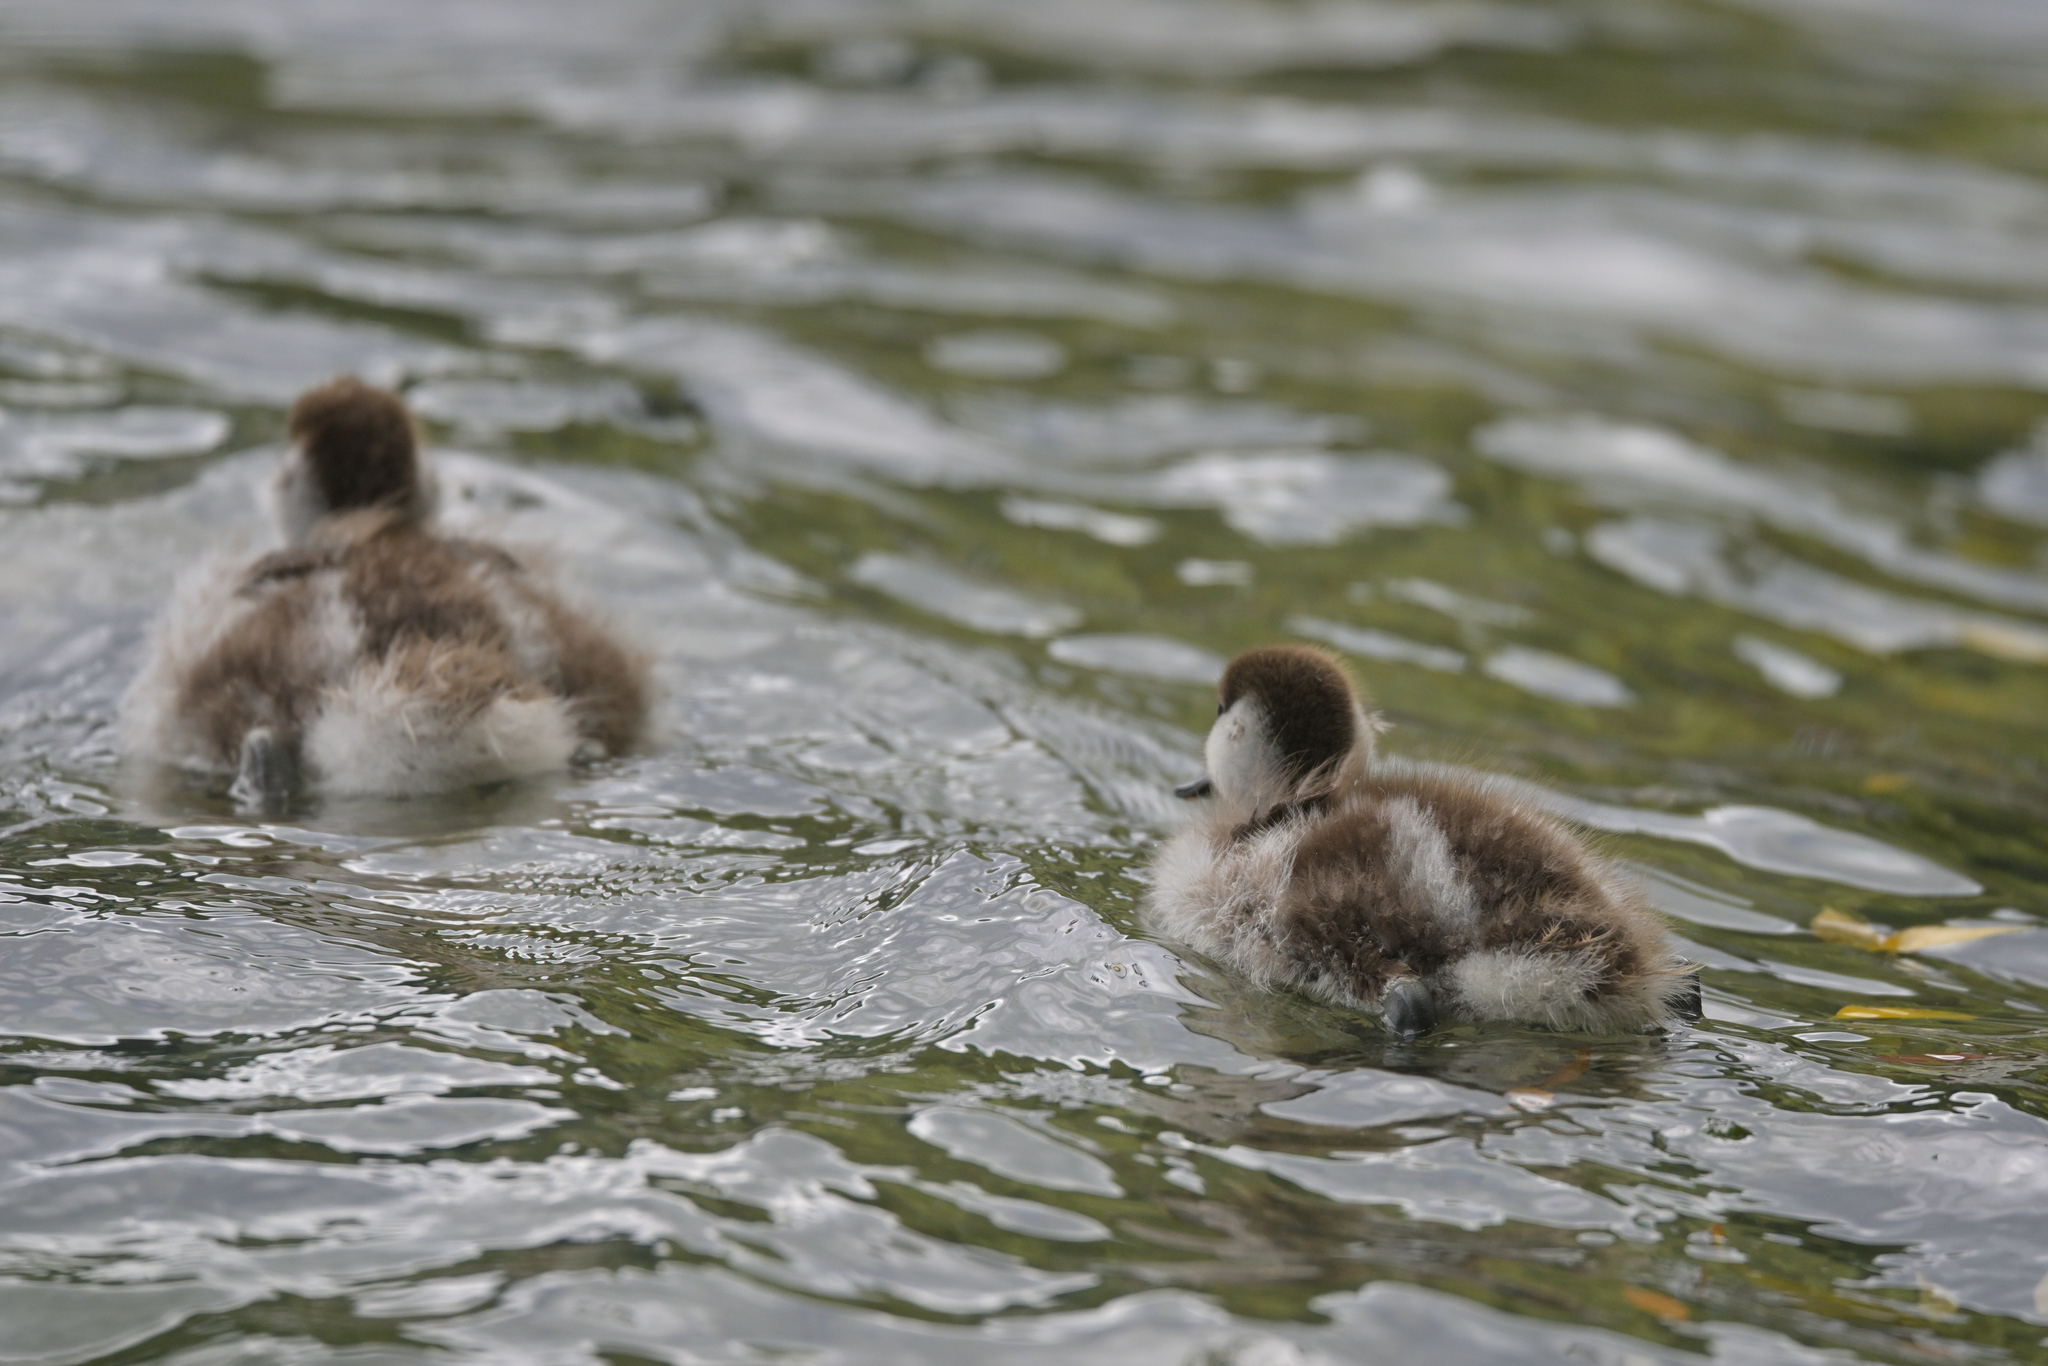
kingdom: Animalia
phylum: Chordata
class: Aves
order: Anseriformes
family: Anatidae
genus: Tadorna
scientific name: Tadorna variegata
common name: Paradise shelduck
